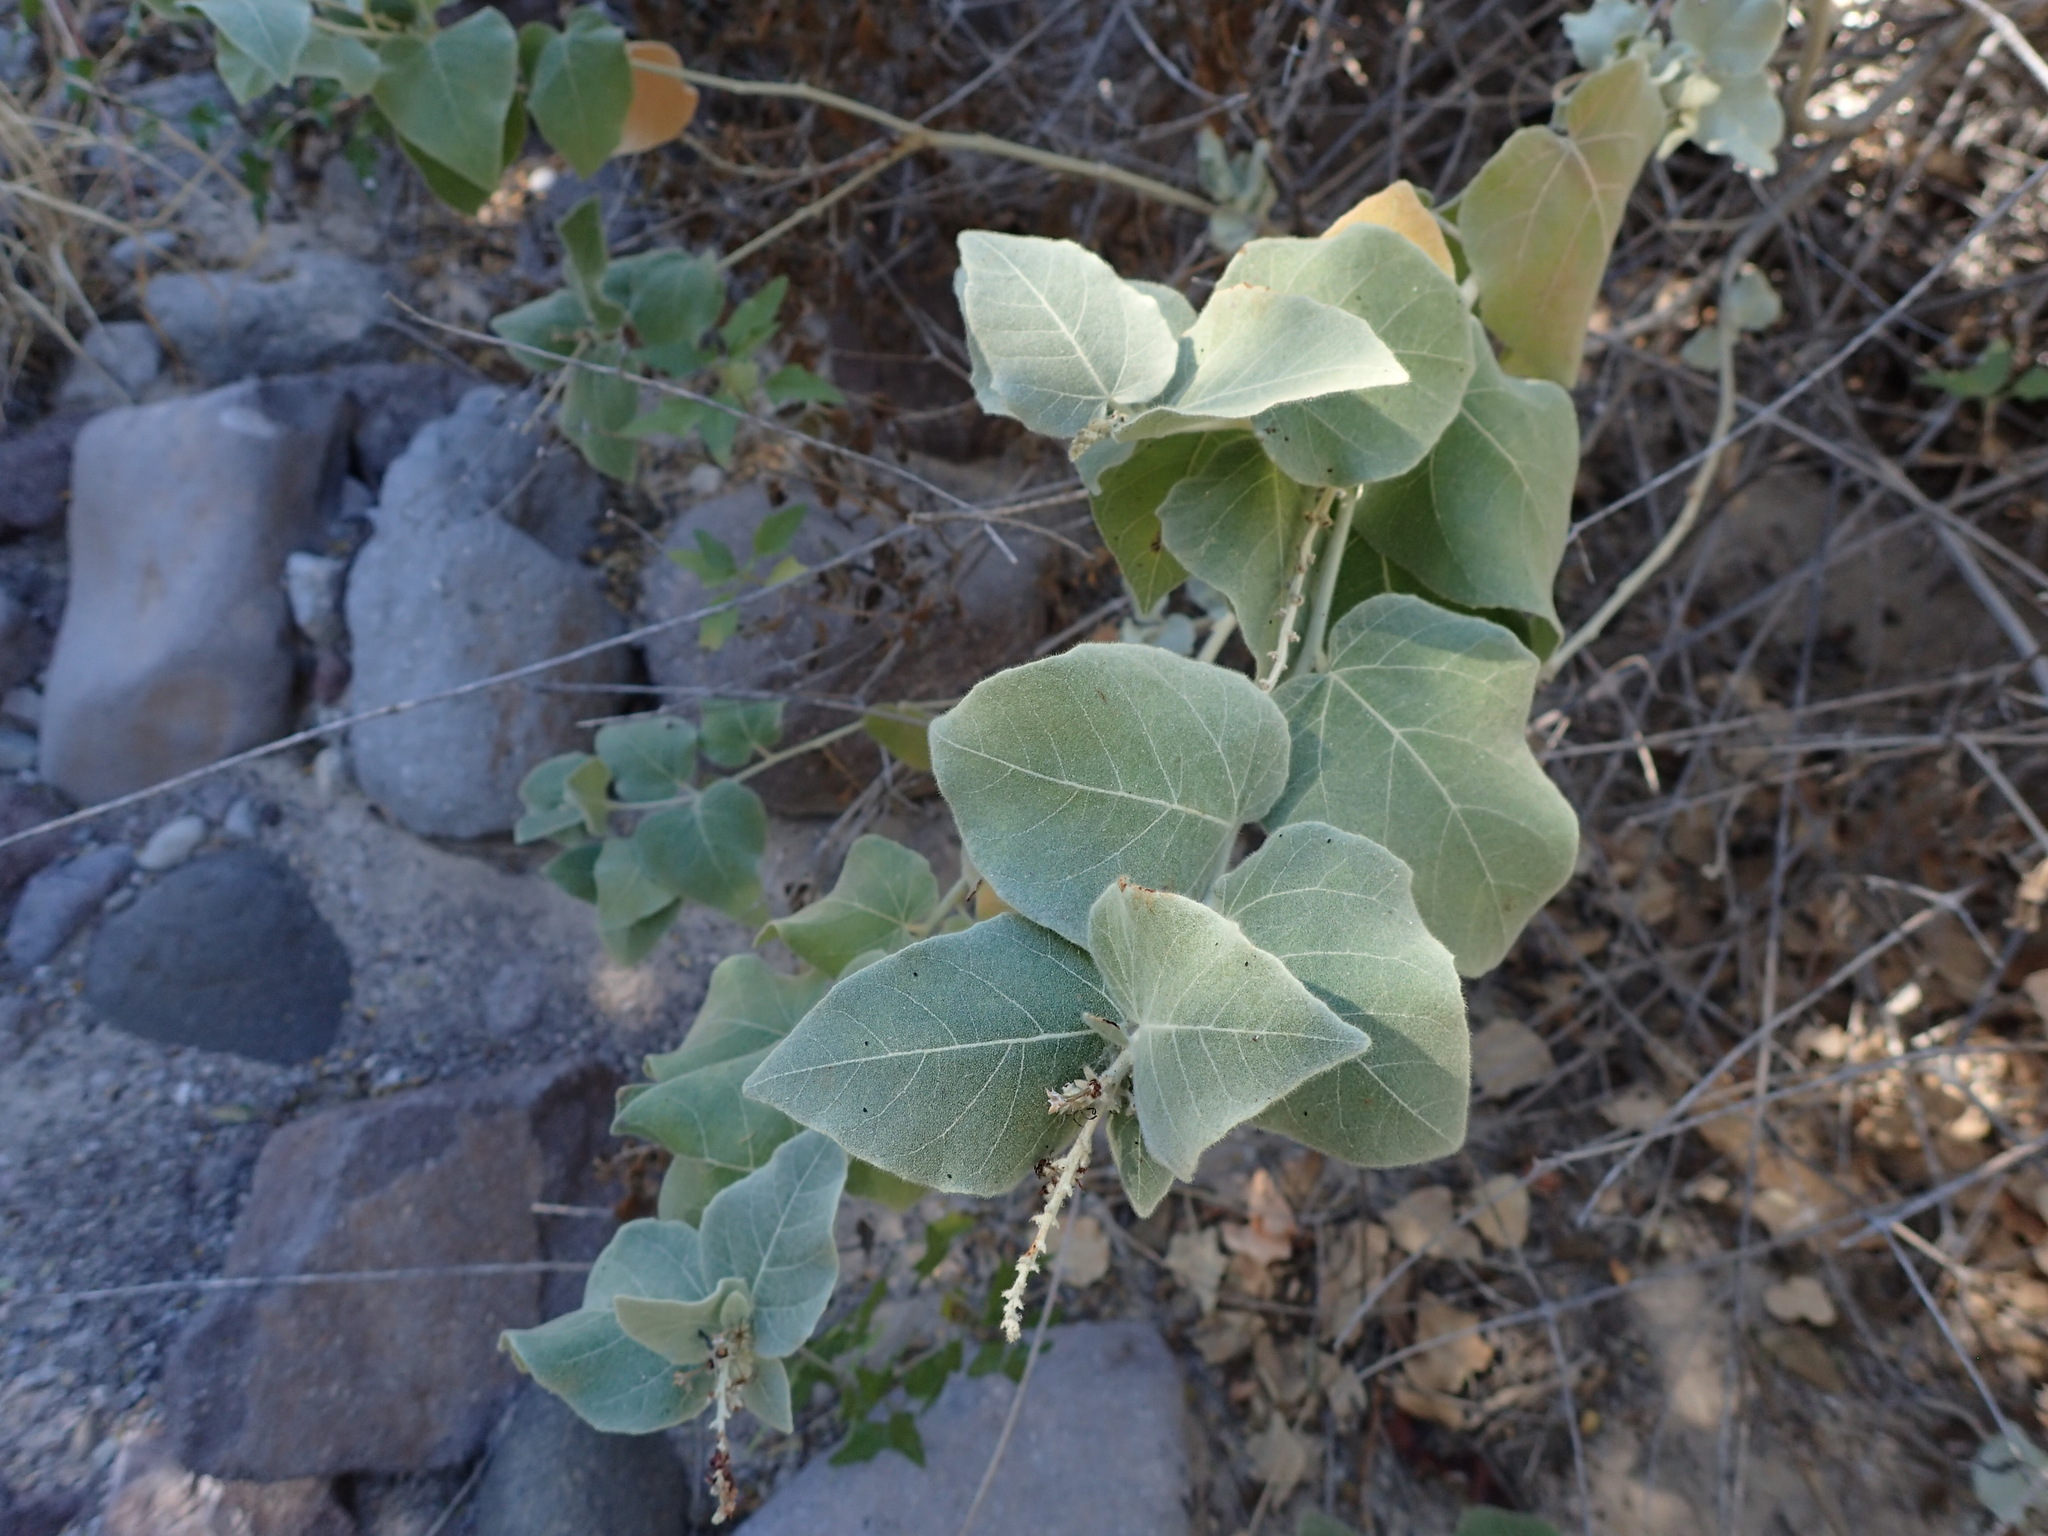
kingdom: Plantae
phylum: Tracheophyta
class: Magnoliopsida
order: Malpighiales
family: Euphorbiaceae
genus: Croton
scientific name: Croton magdalenae
